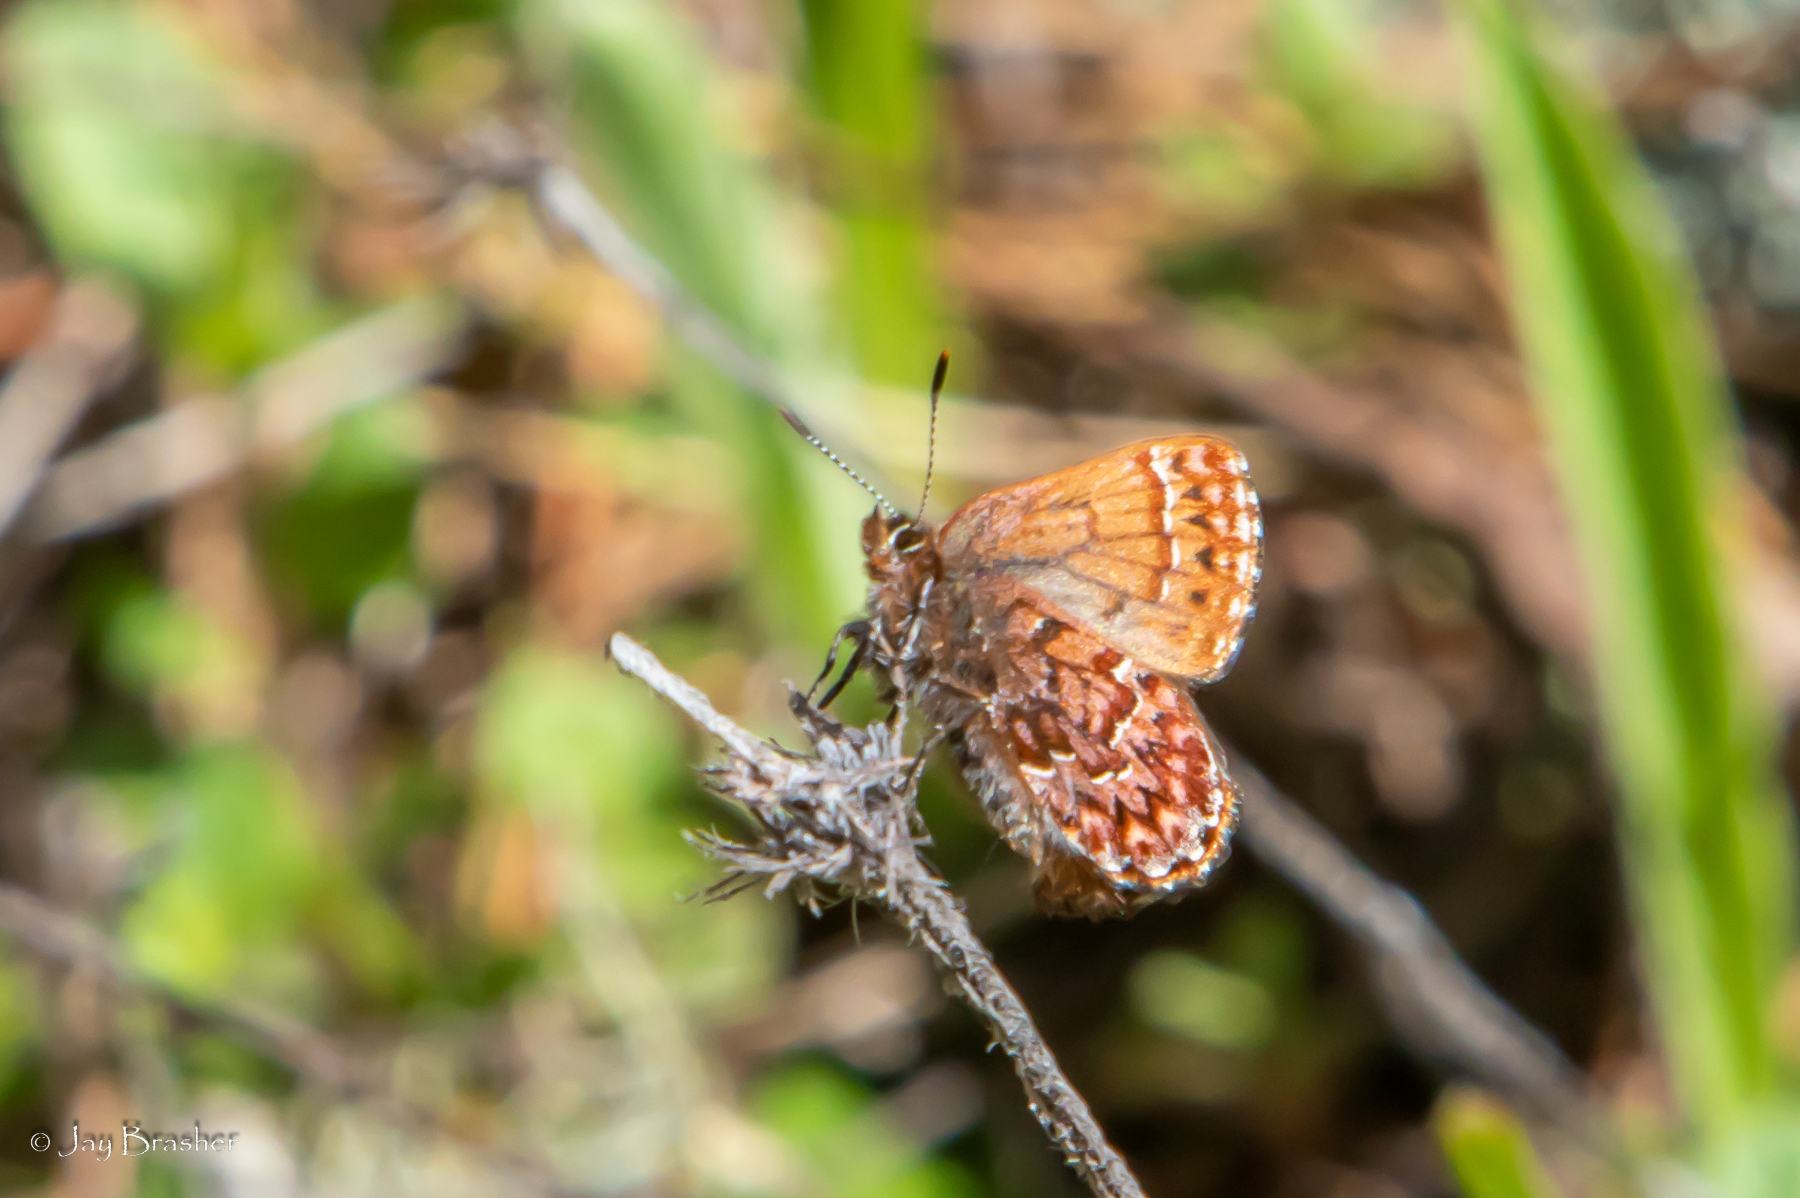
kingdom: Animalia
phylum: Arthropoda
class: Insecta
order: Lepidoptera
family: Lycaenidae
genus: Incisalia
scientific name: Incisalia eryphon
